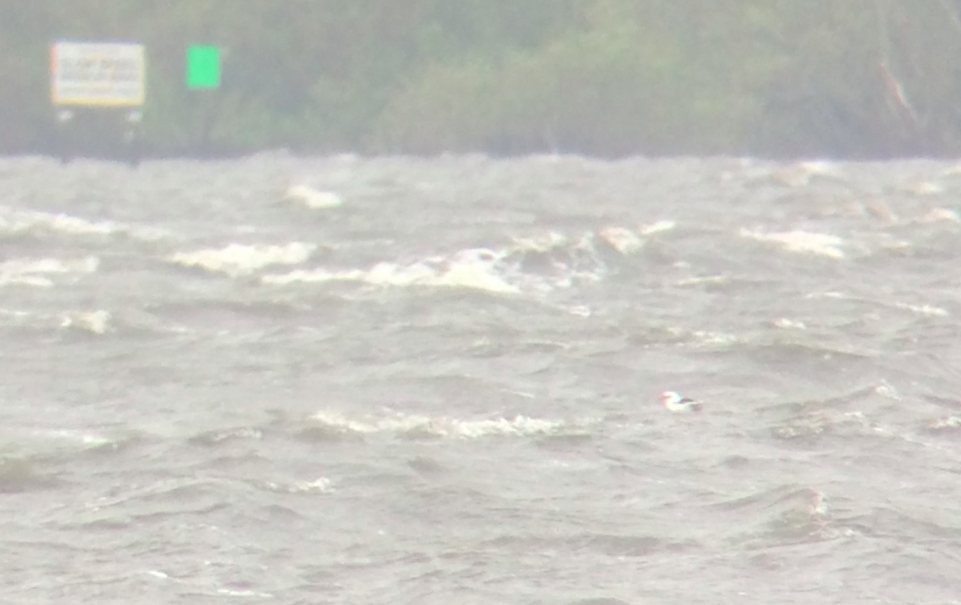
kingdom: Animalia
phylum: Chordata
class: Aves
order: Phaethontiformes
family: Phaethontidae
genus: Phaethon
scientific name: Phaethon lepturus
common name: White-tailed tropicbird
